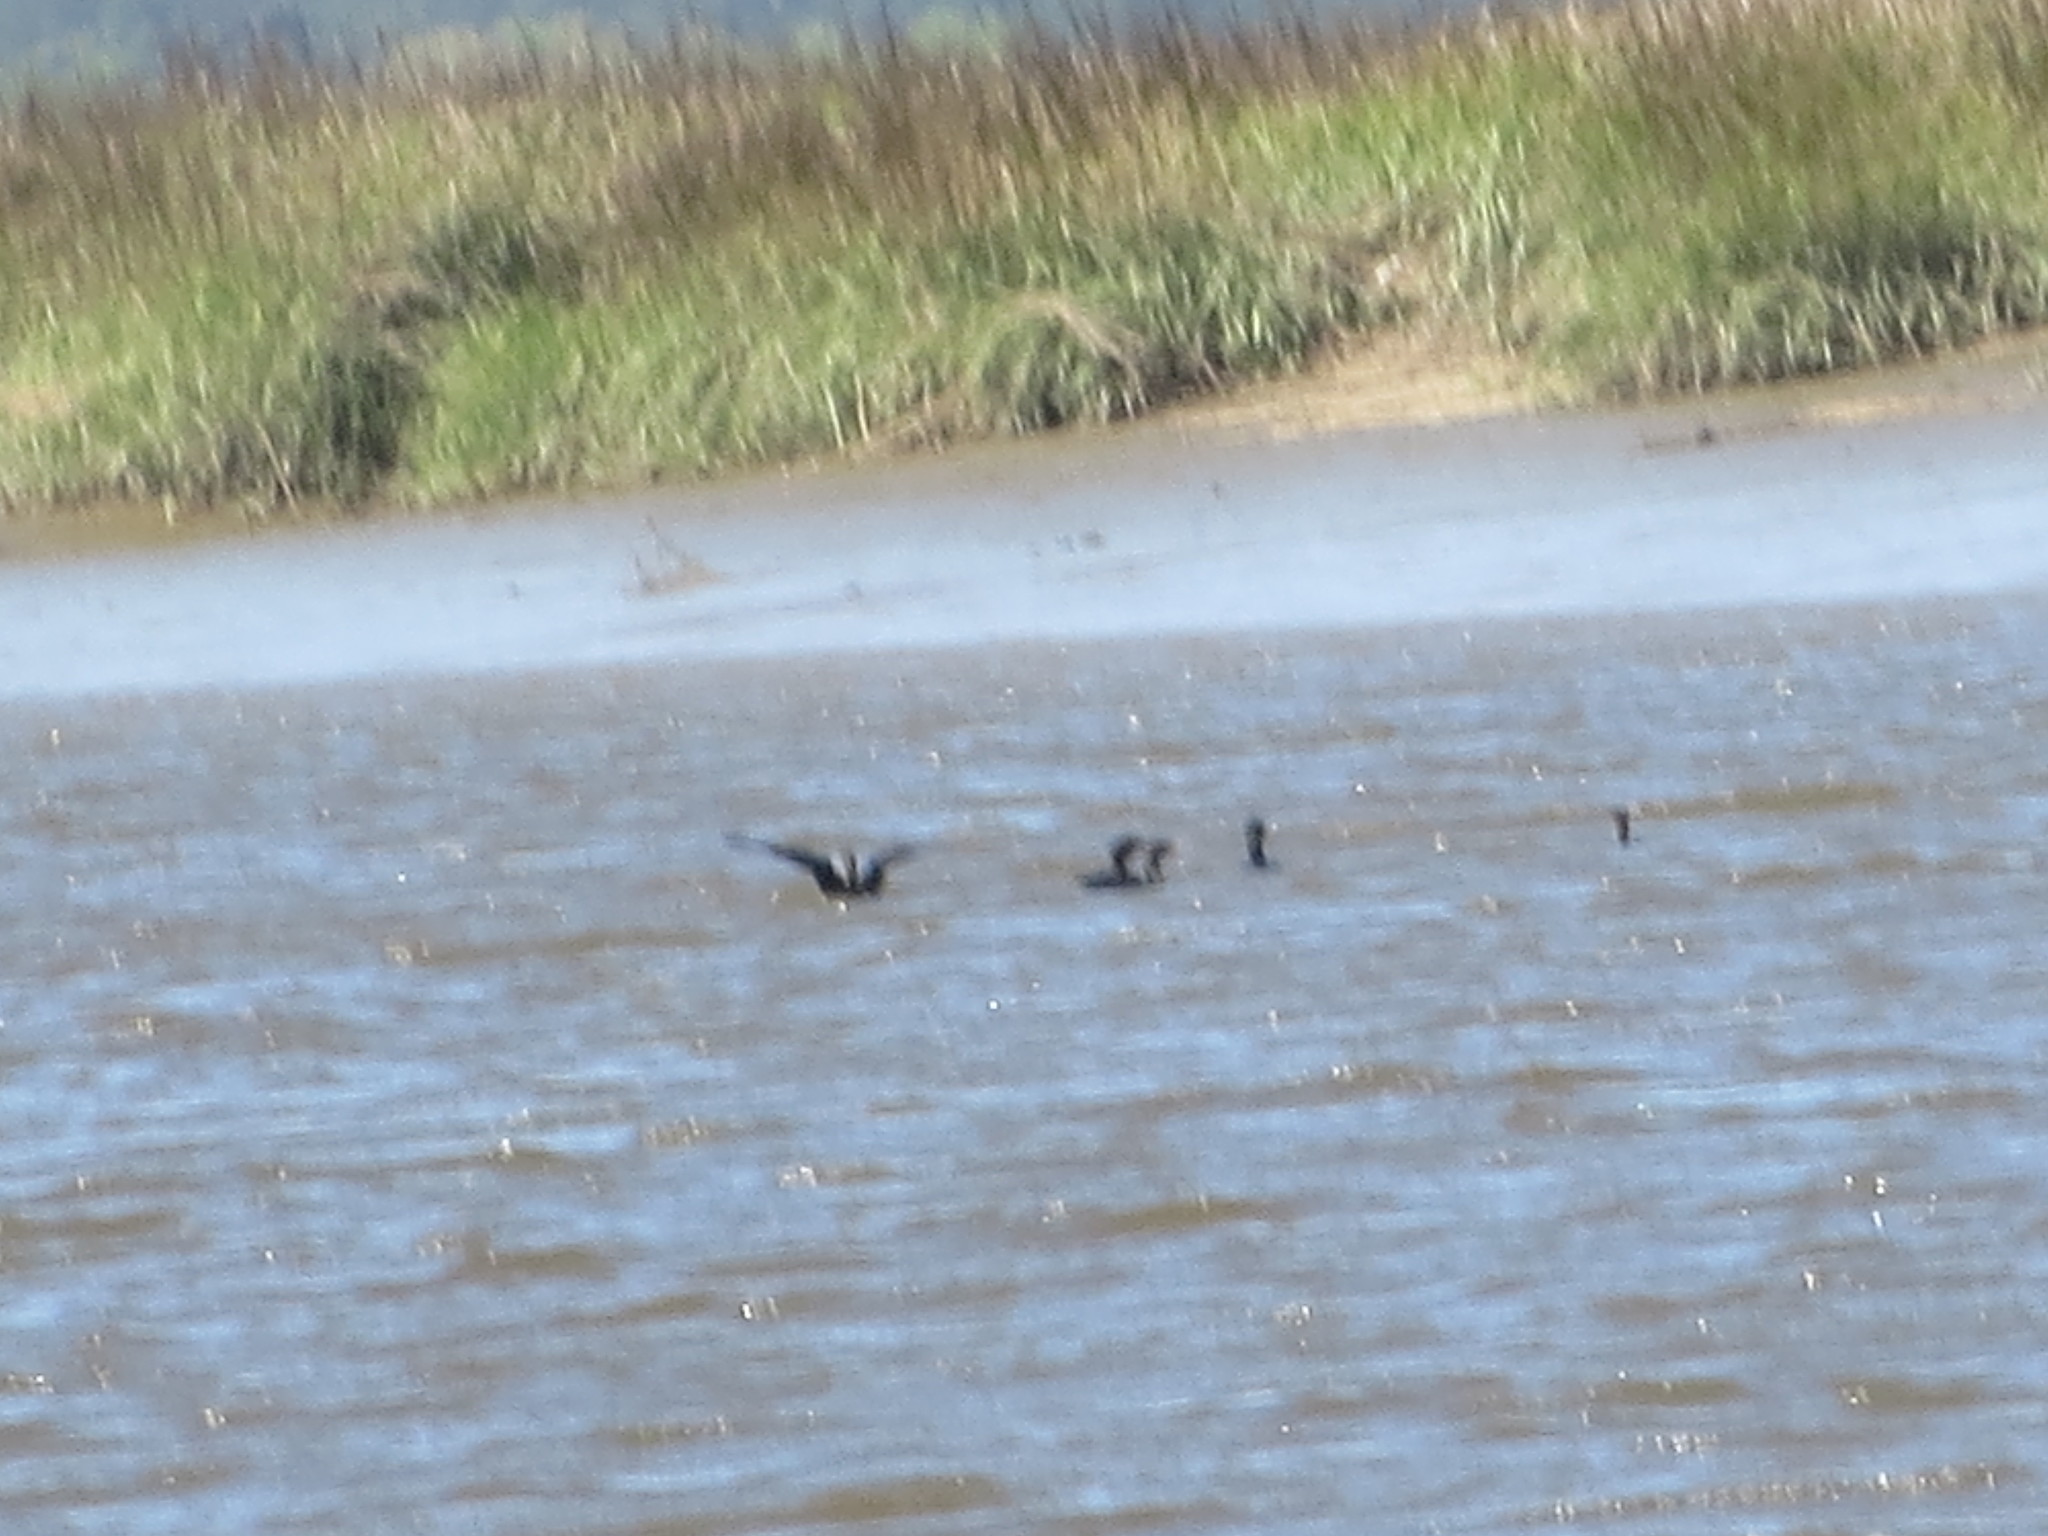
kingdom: Animalia
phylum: Chordata
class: Aves
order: Suliformes
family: Phalacrocoracidae
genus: Phalacrocorax
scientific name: Phalacrocorax auritus
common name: Double-crested cormorant
